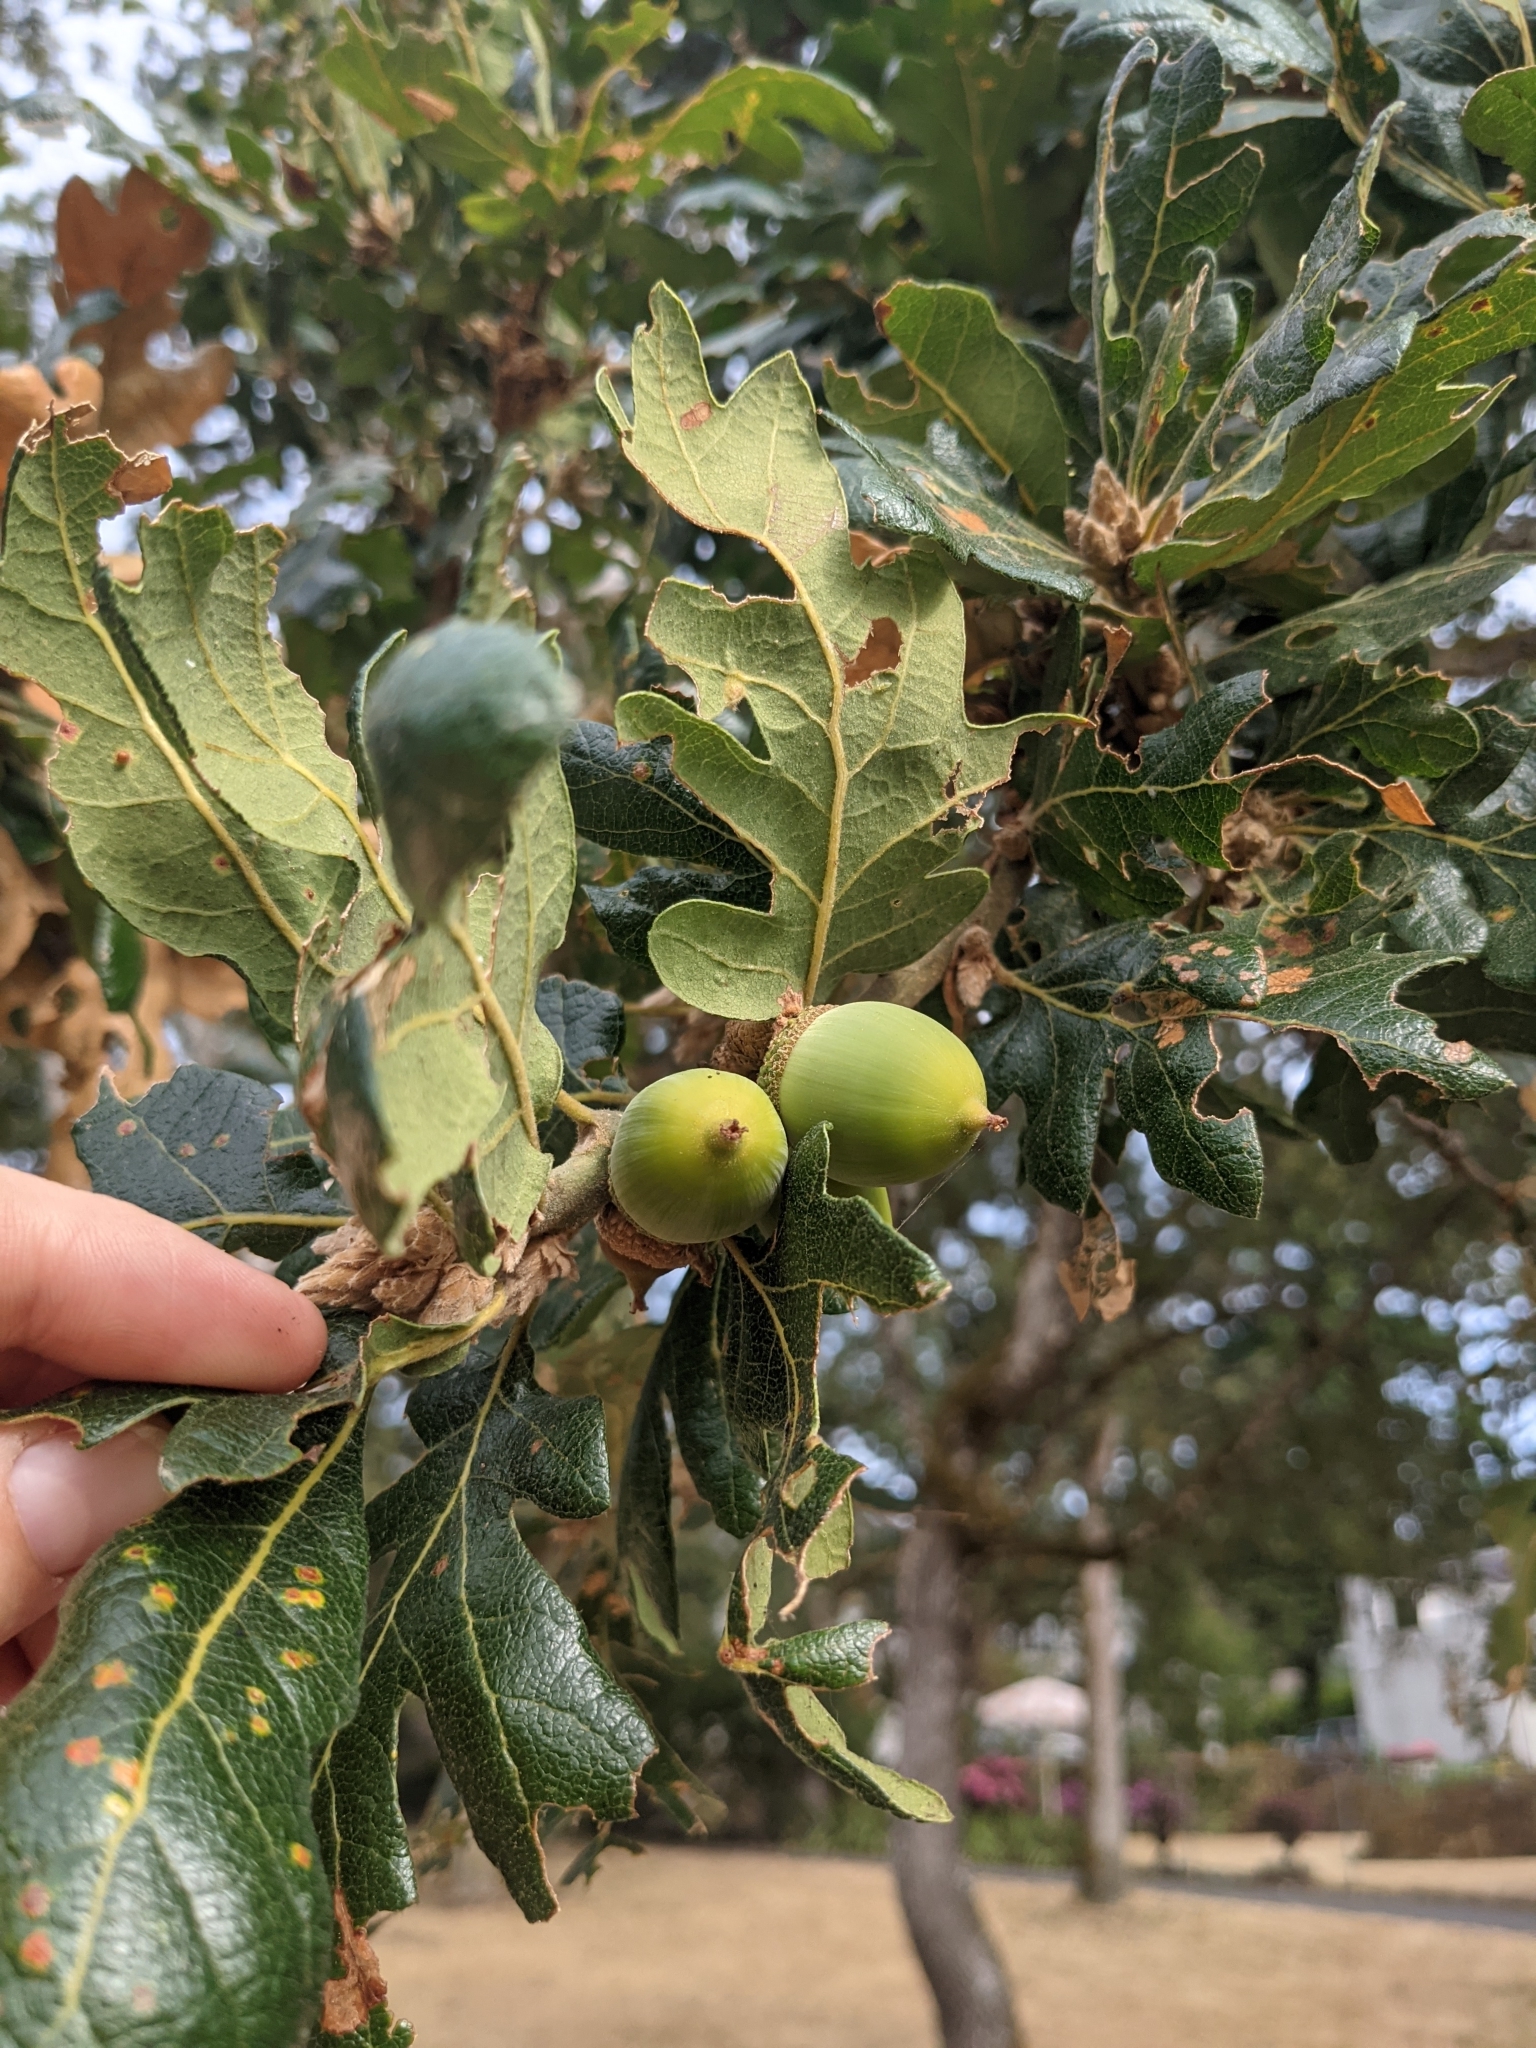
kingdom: Plantae
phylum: Tracheophyta
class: Magnoliopsida
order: Fagales
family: Fagaceae
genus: Quercus
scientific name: Quercus garryana
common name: Garry oak
